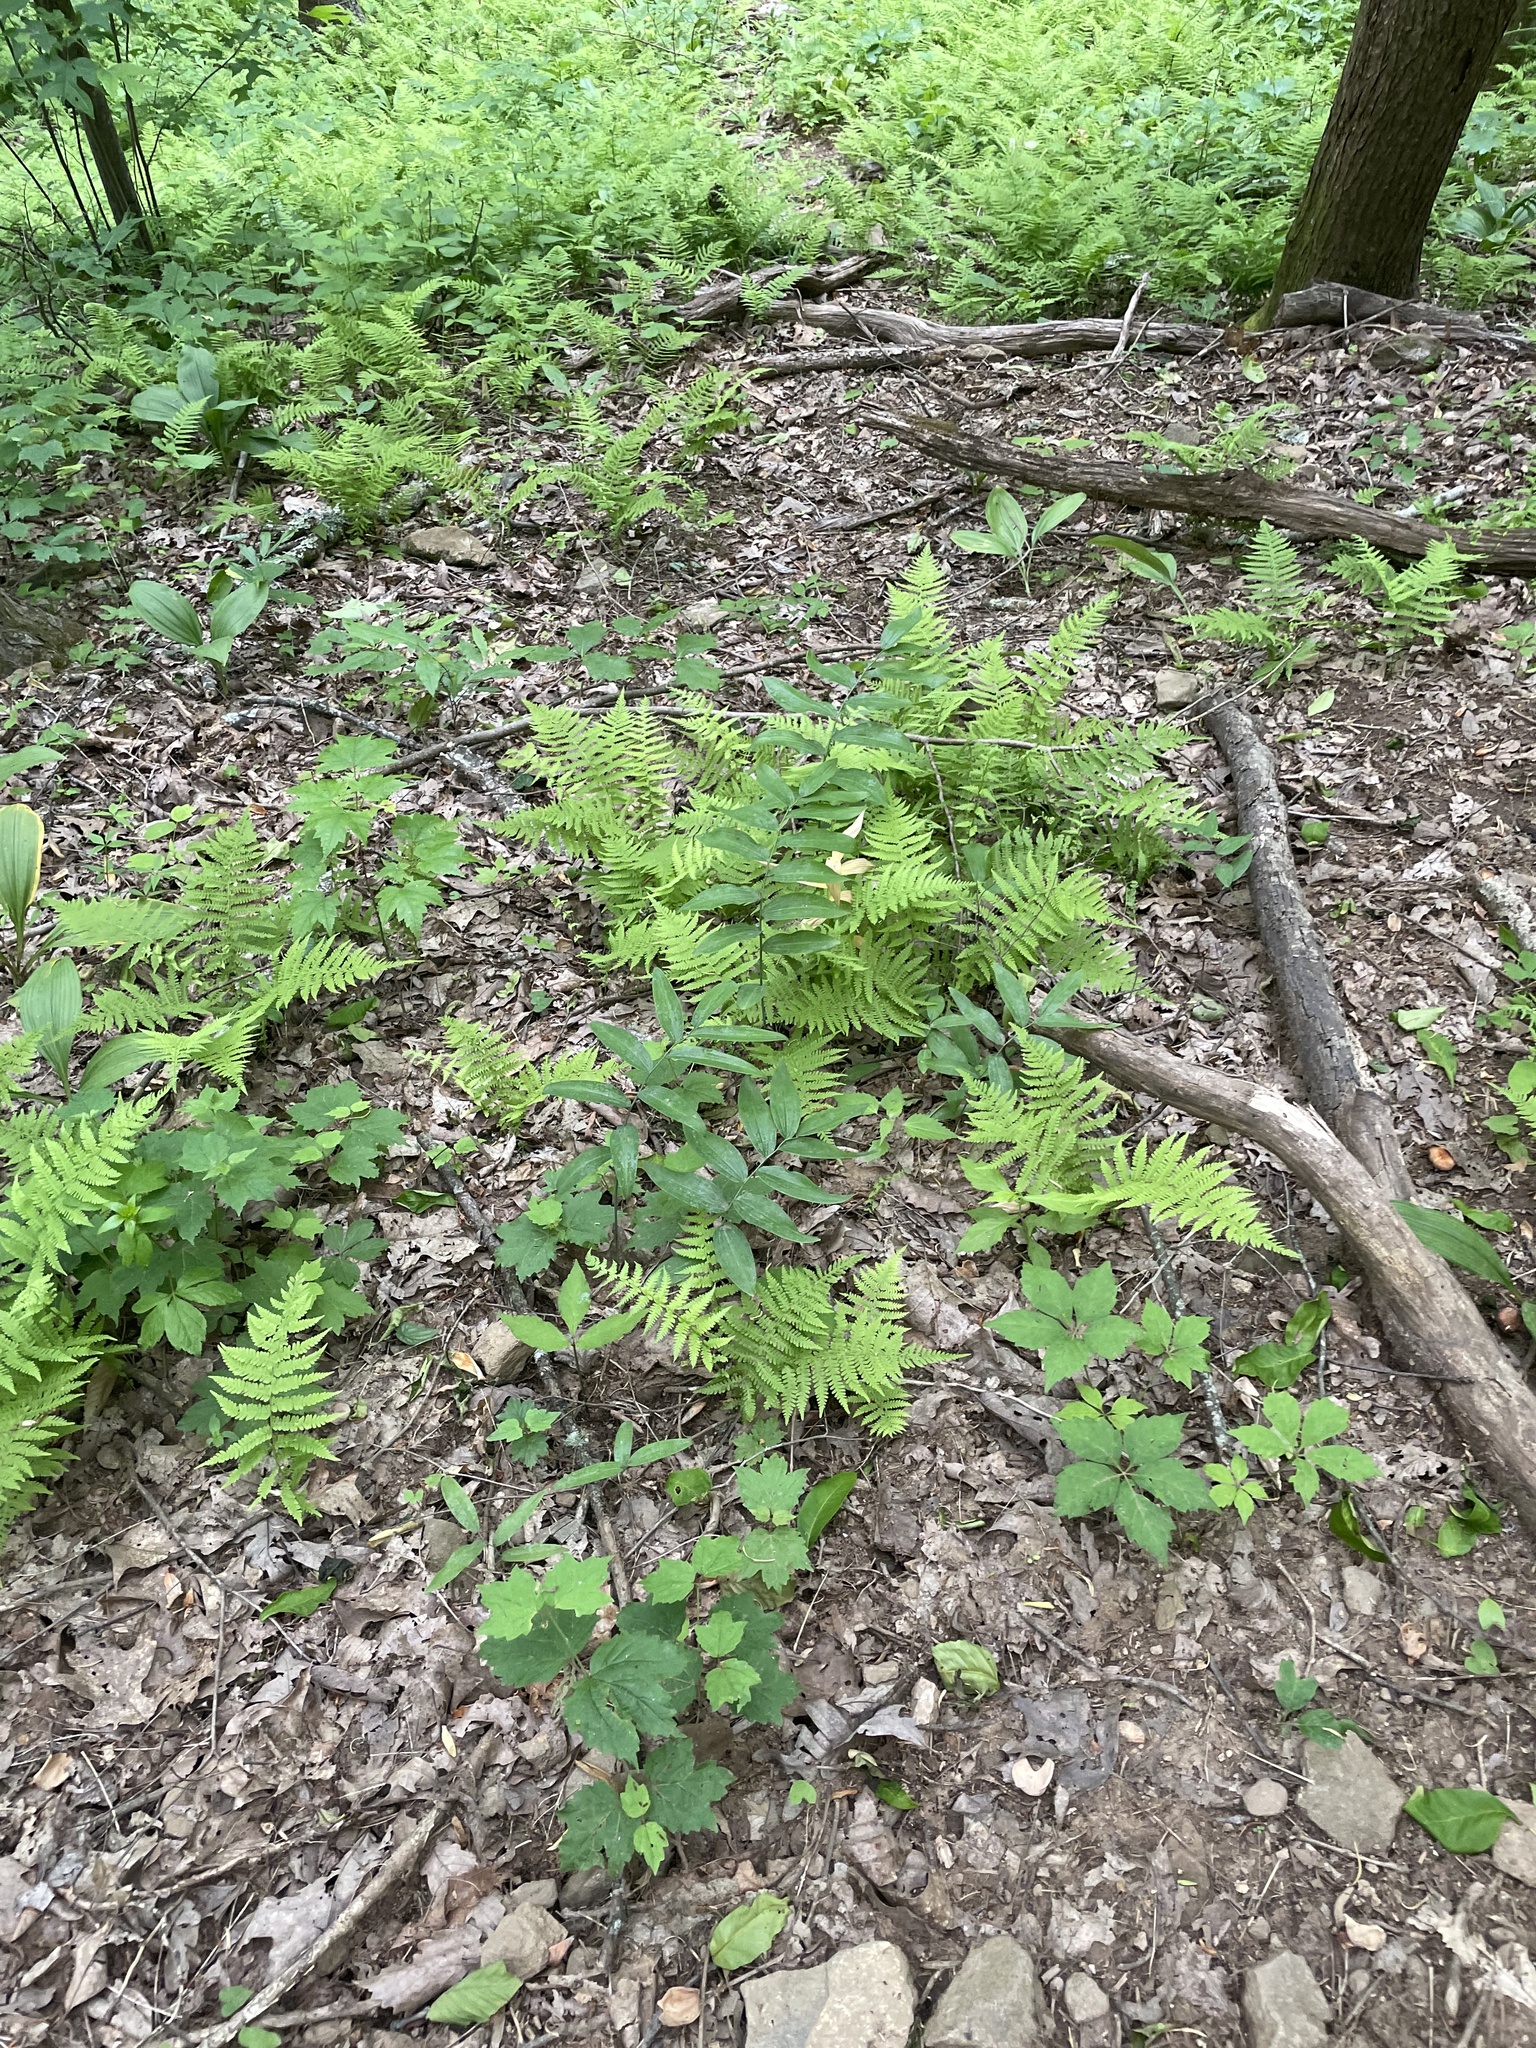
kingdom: Plantae
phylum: Tracheophyta
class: Polypodiopsida
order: Polypodiales
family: Athyriaceae
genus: Deparia
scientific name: Deparia acrostichoides
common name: Silver false spleenwort
